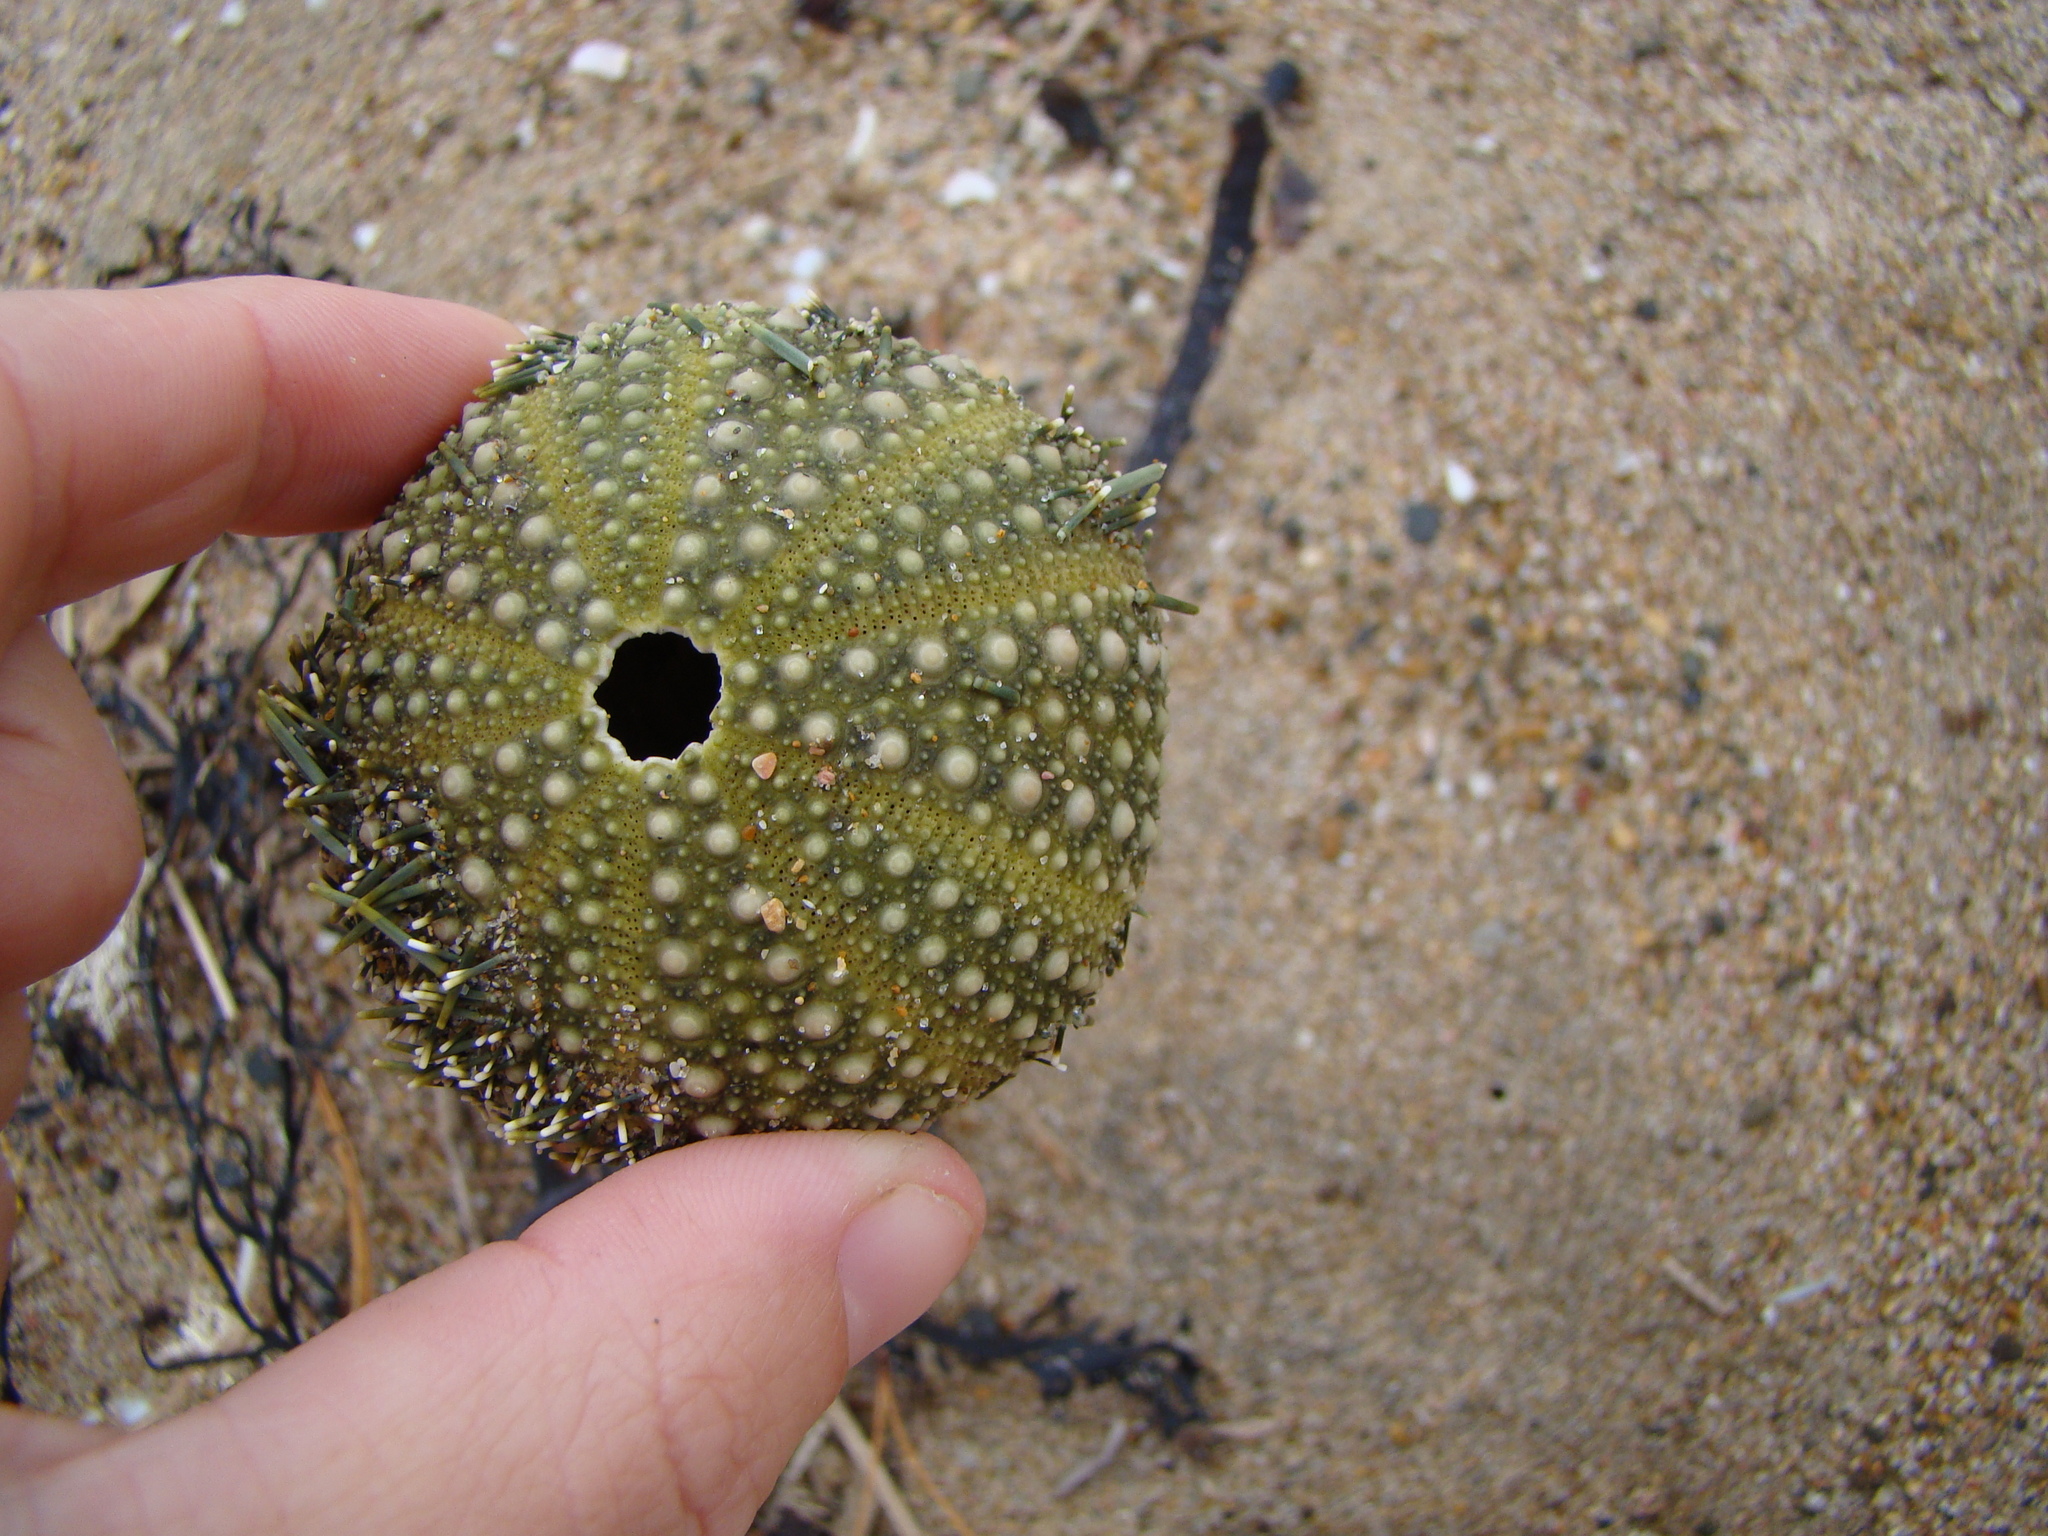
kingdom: Animalia
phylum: Echinodermata
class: Echinoidea
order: Camarodonta
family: Echinometridae
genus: Evechinus
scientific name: Evechinus chloroticus
